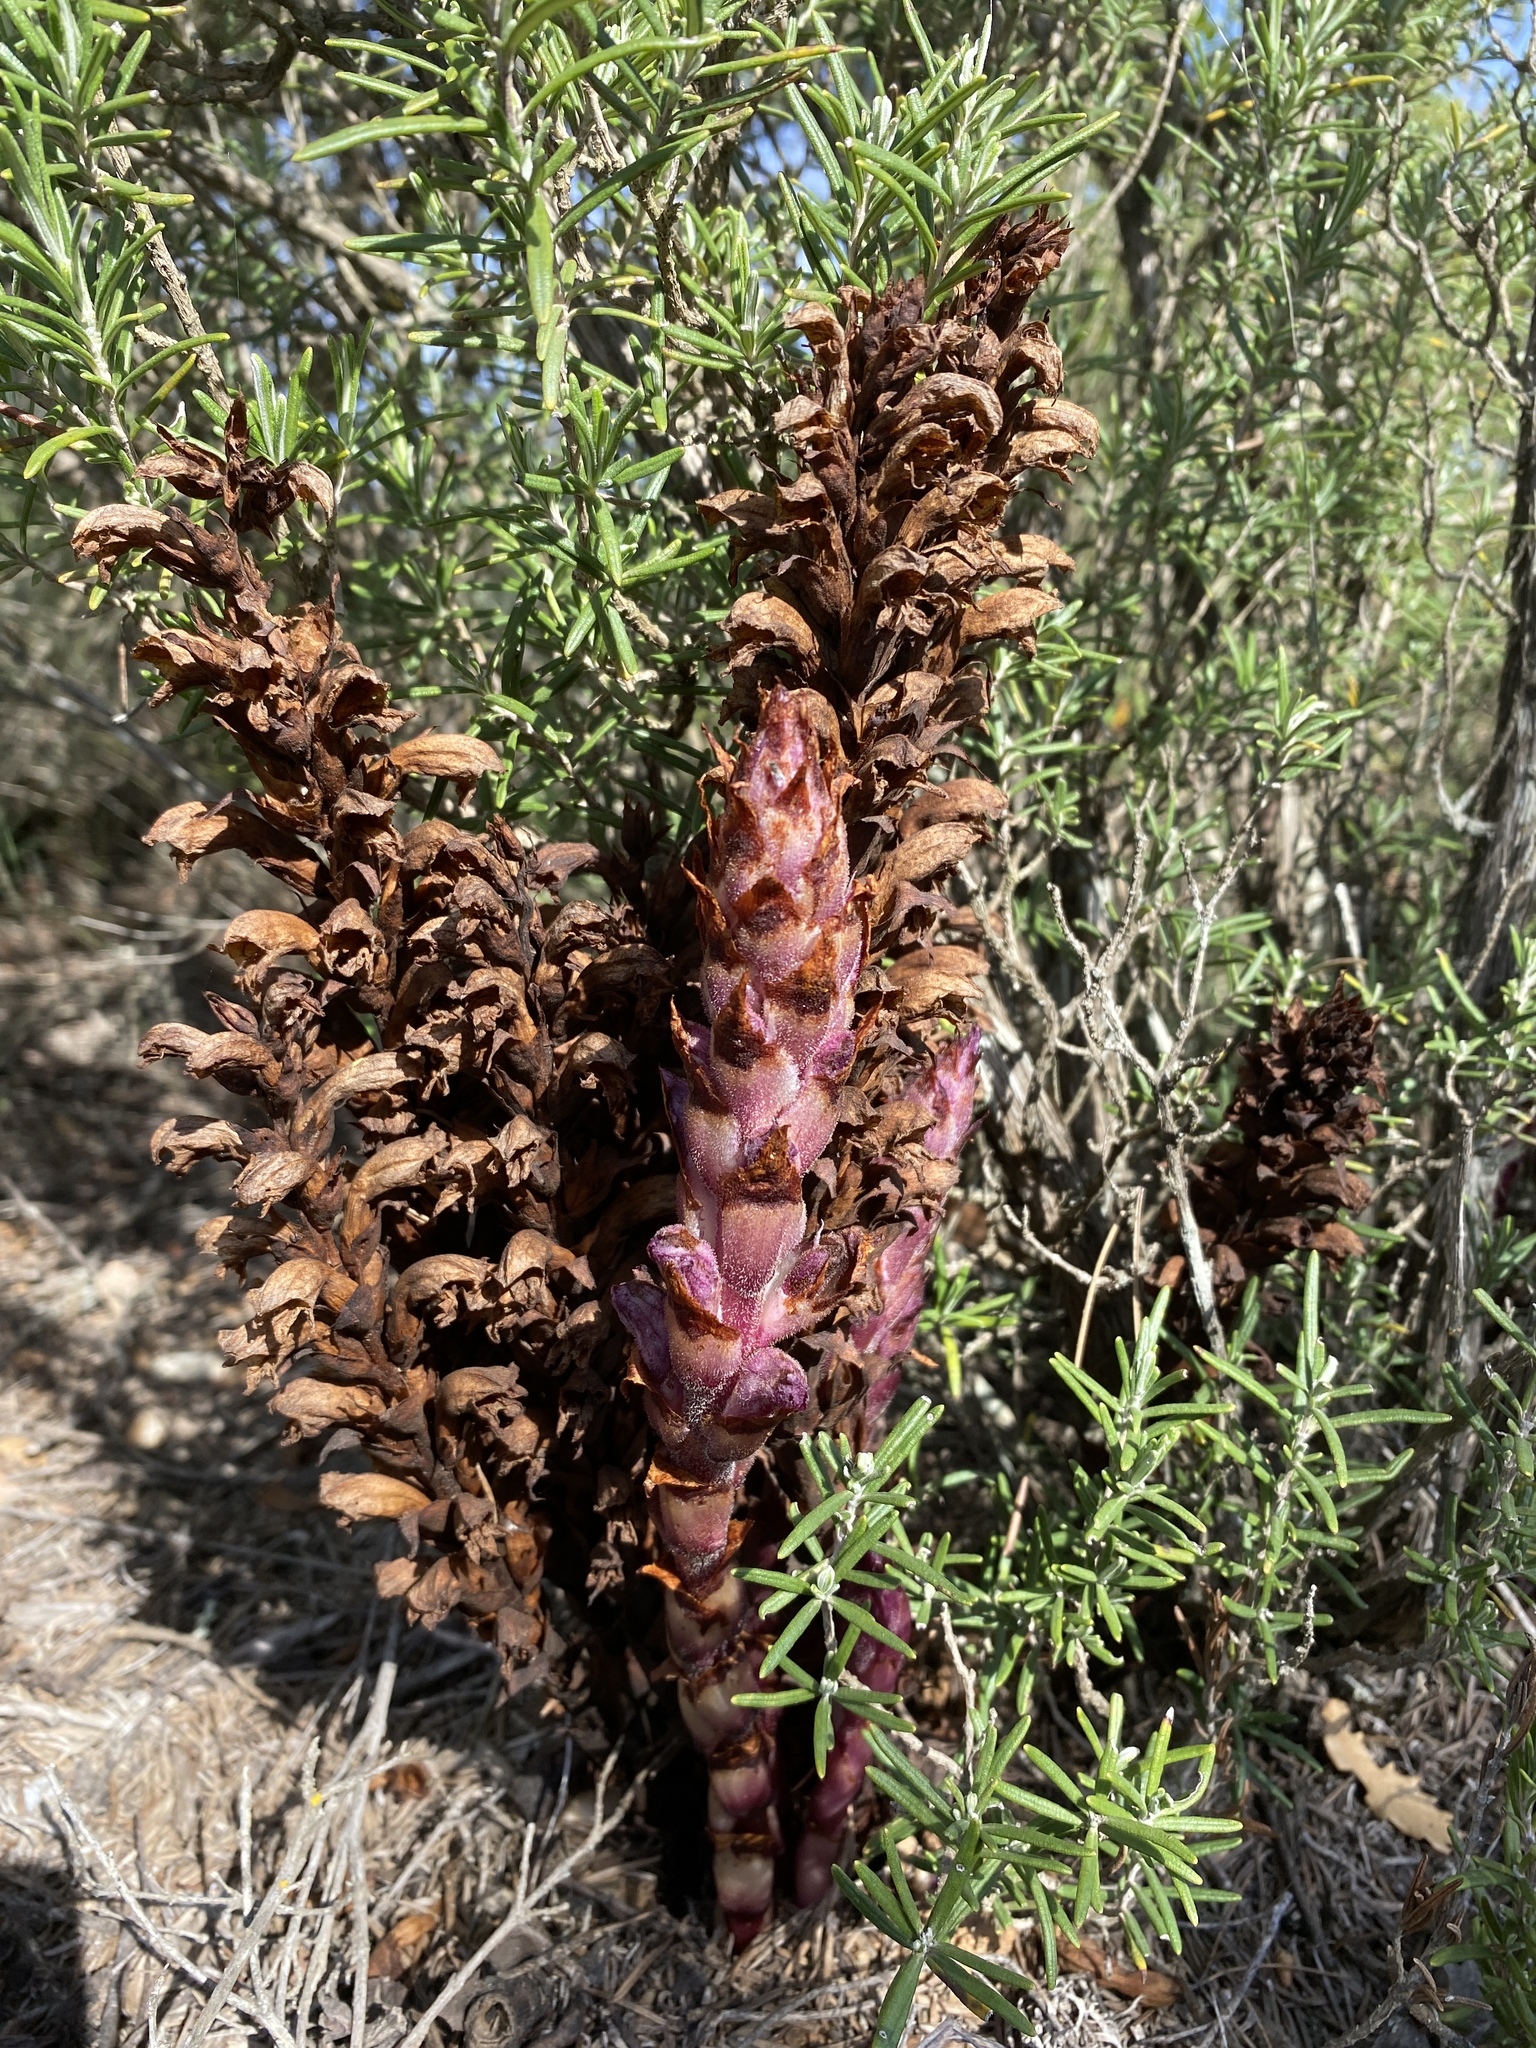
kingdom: Plantae
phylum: Tracheophyta
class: Magnoliopsida
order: Lamiales
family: Orobanchaceae
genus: Boulardia
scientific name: Boulardia latisquama
